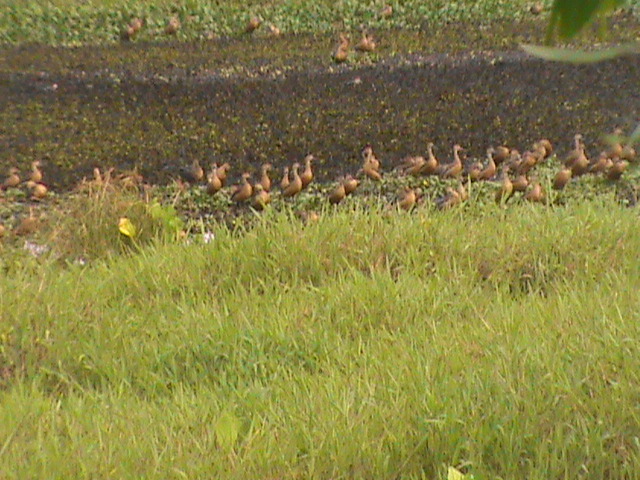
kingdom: Animalia
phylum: Chordata
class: Aves
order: Anseriformes
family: Anatidae
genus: Dendrocygna
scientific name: Dendrocygna javanica
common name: Lesser whistling-duck
